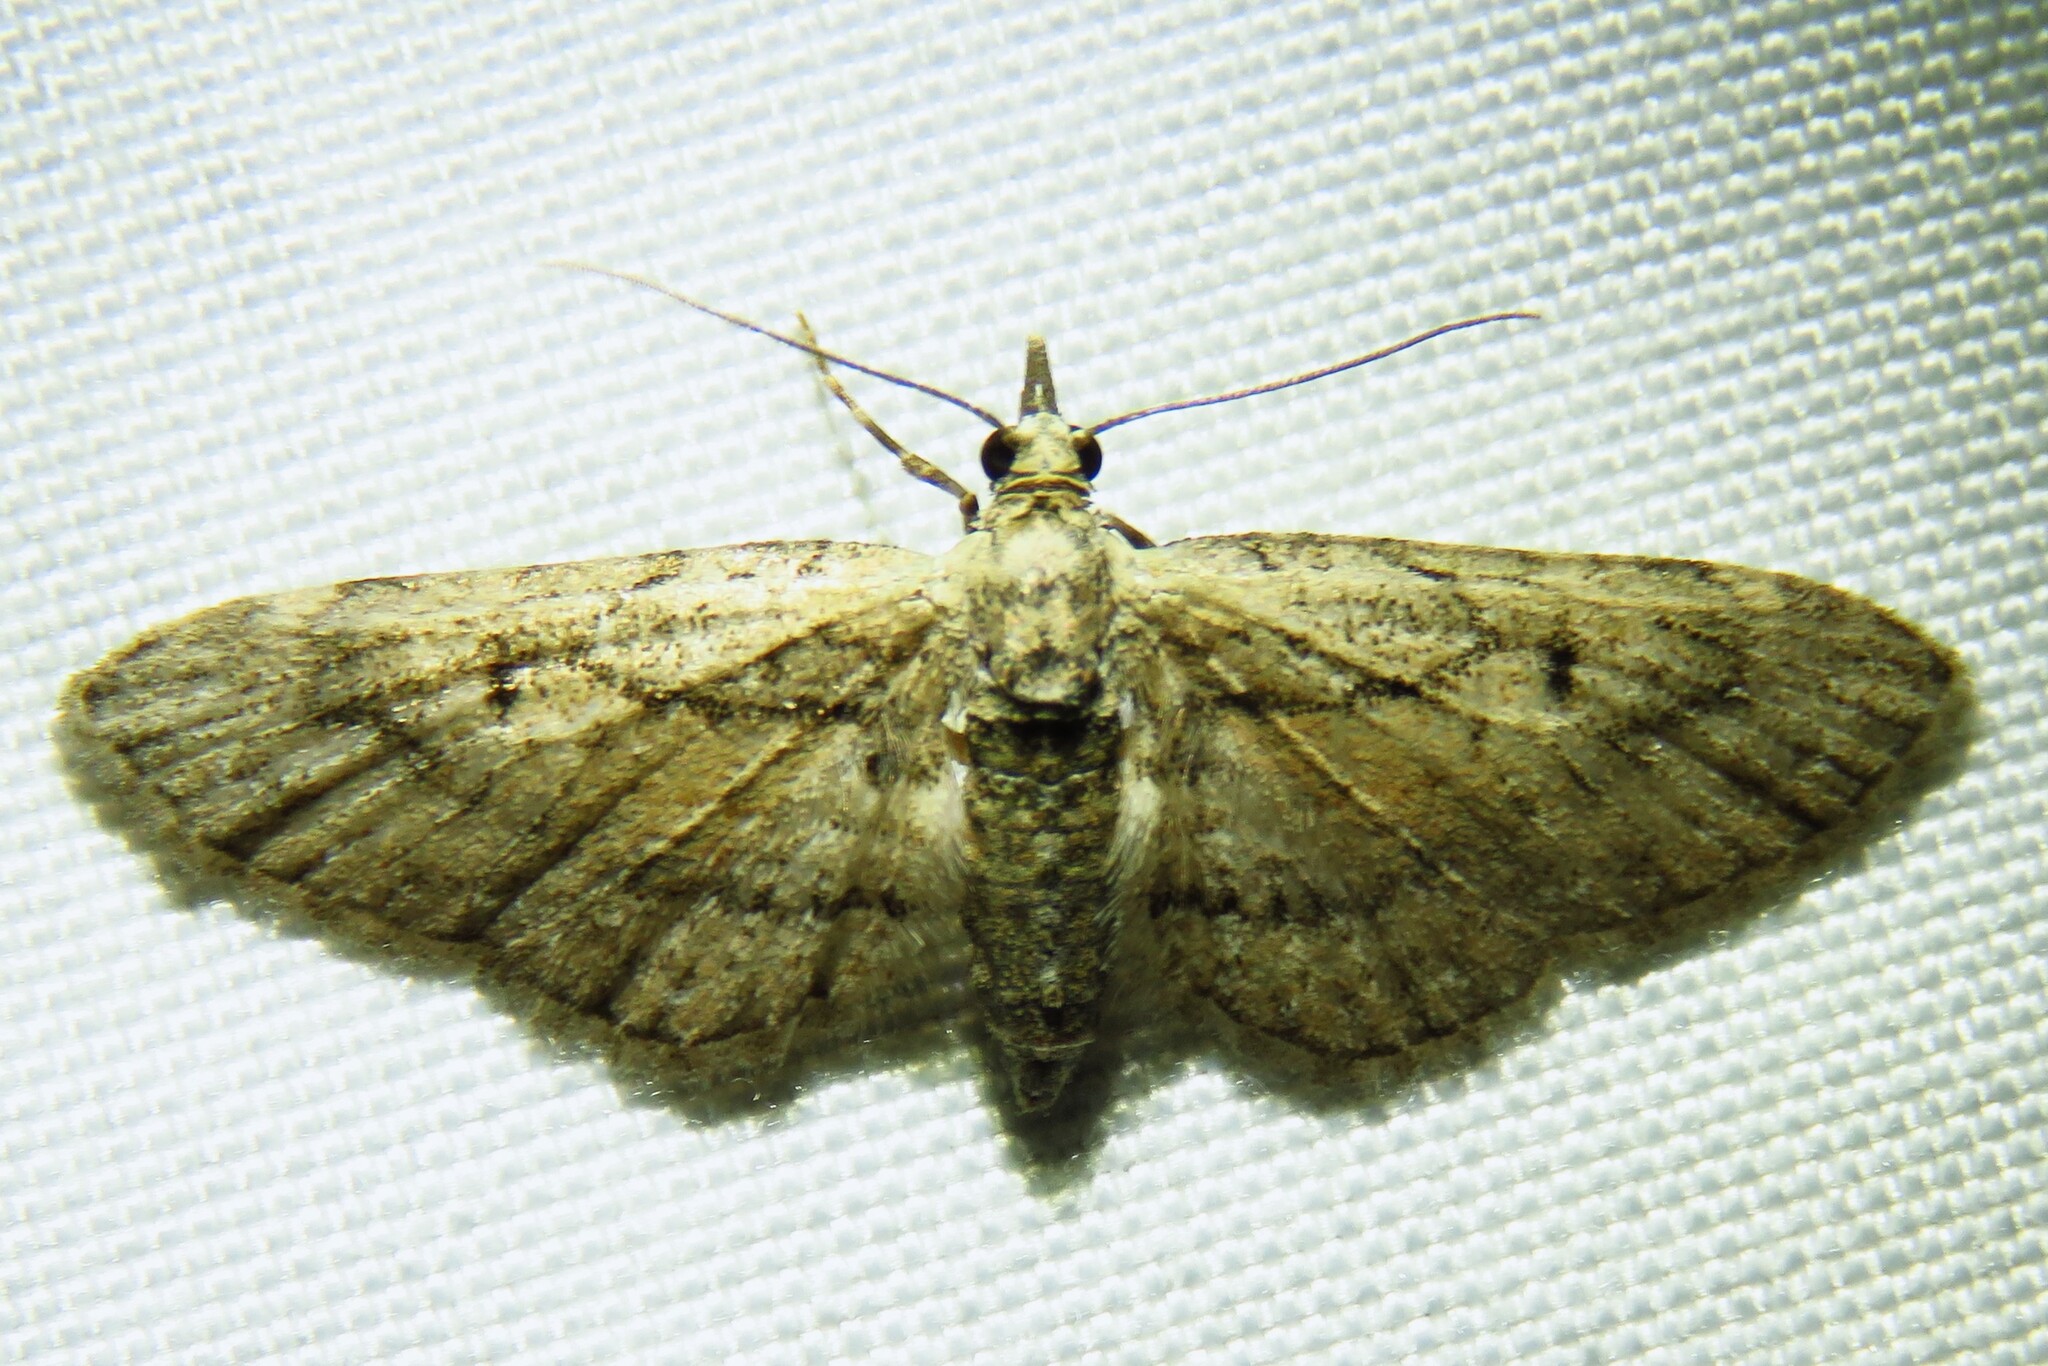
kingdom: Animalia
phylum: Arthropoda
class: Insecta
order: Lepidoptera
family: Geometridae
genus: Eupithecia
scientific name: Eupithecia longidens
